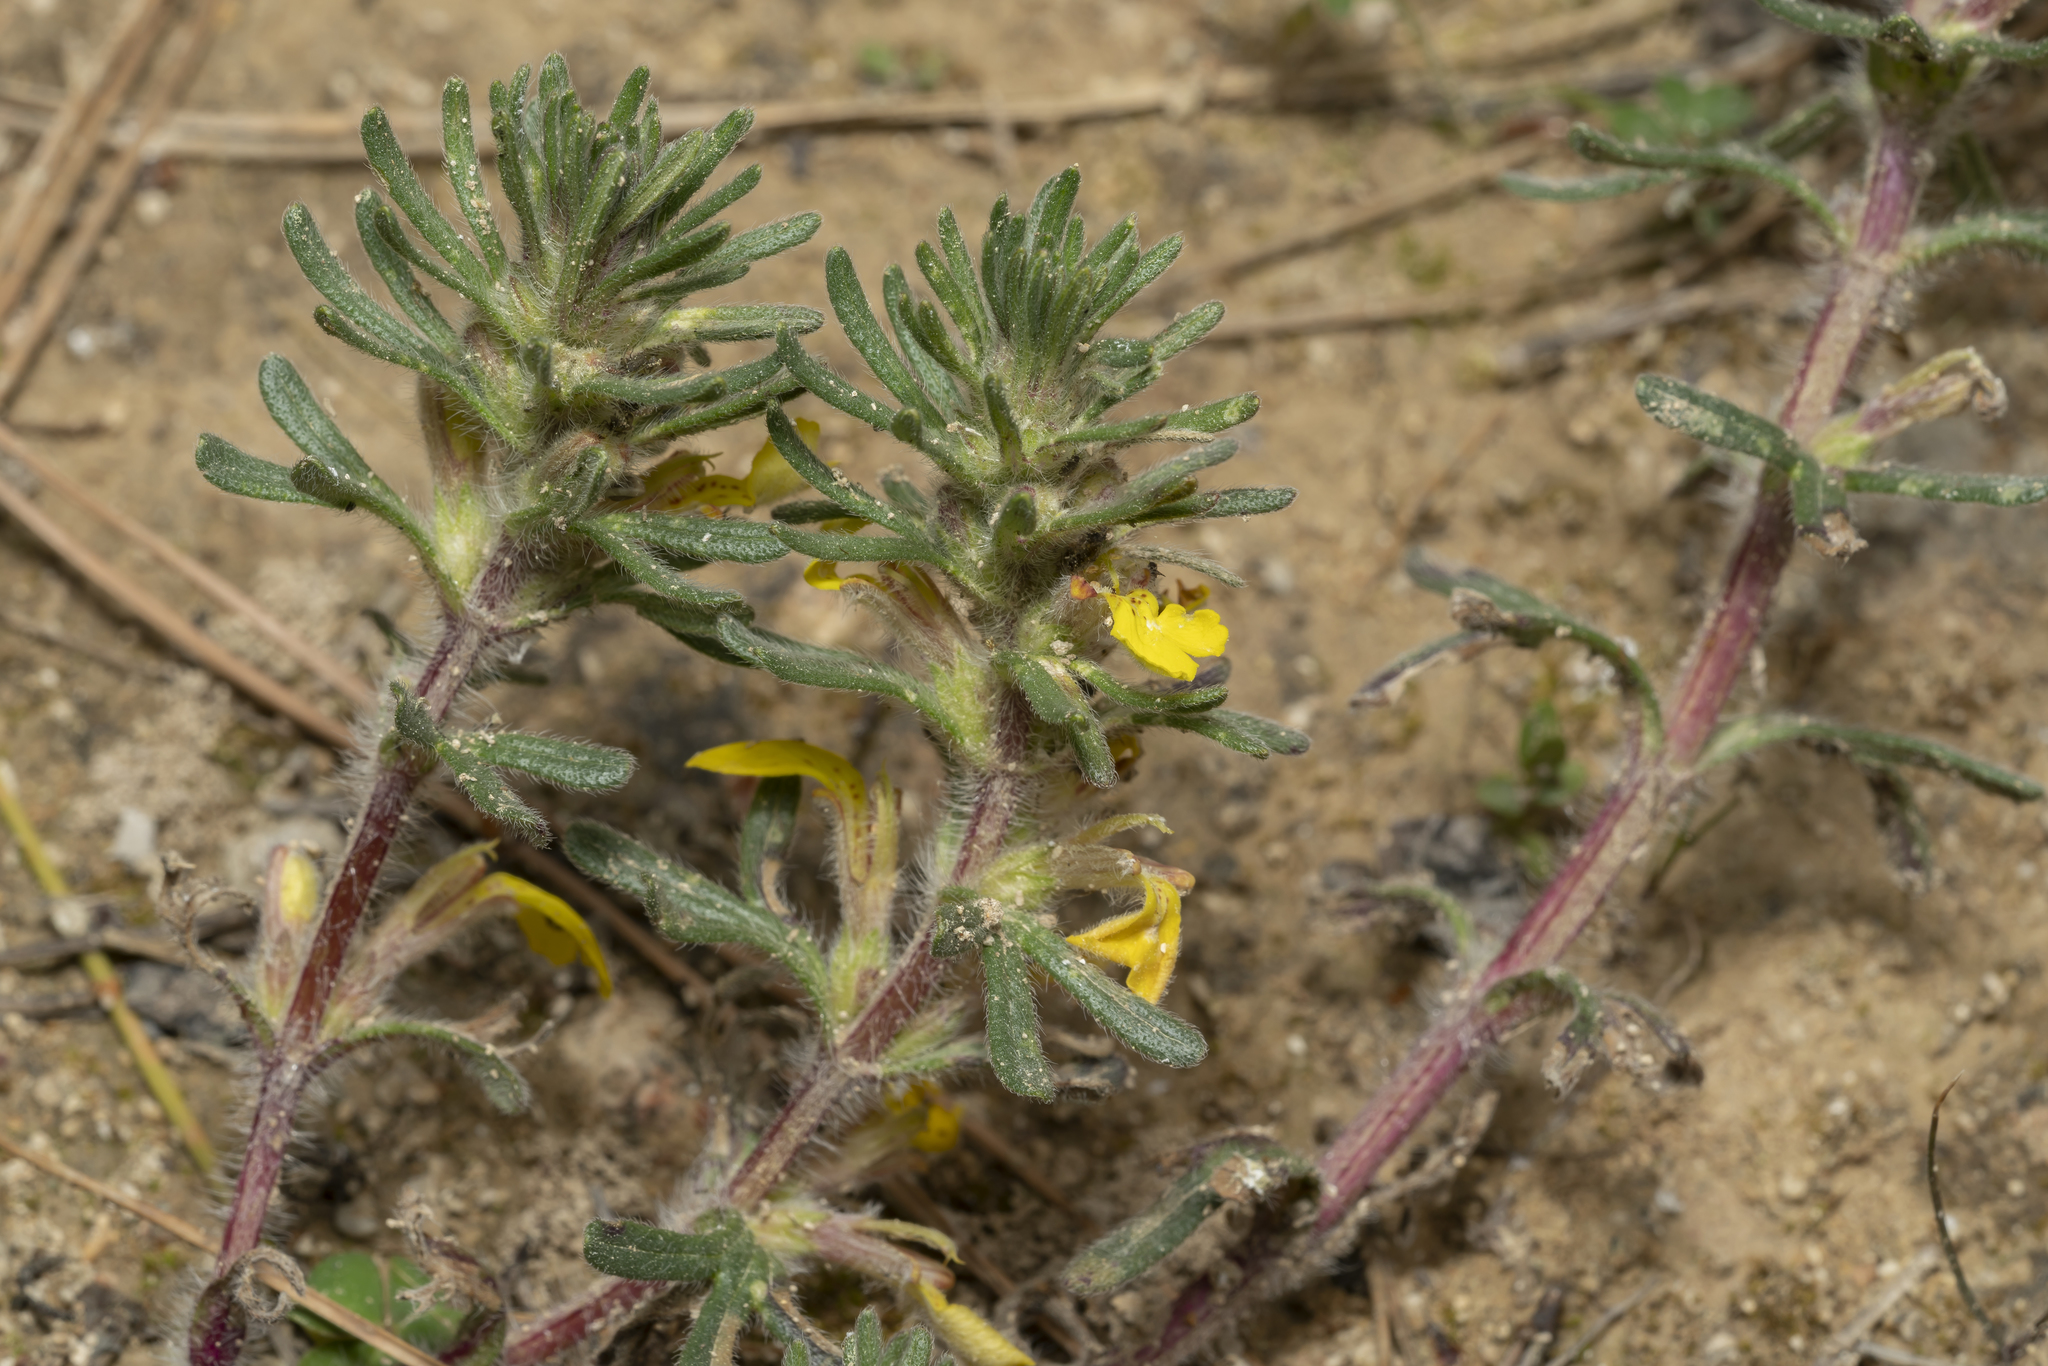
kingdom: Plantae
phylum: Tracheophyta
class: Magnoliopsida
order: Lamiales
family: Lamiaceae
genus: Ajuga
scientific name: Ajuga chamaepitys
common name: Ground-pine
